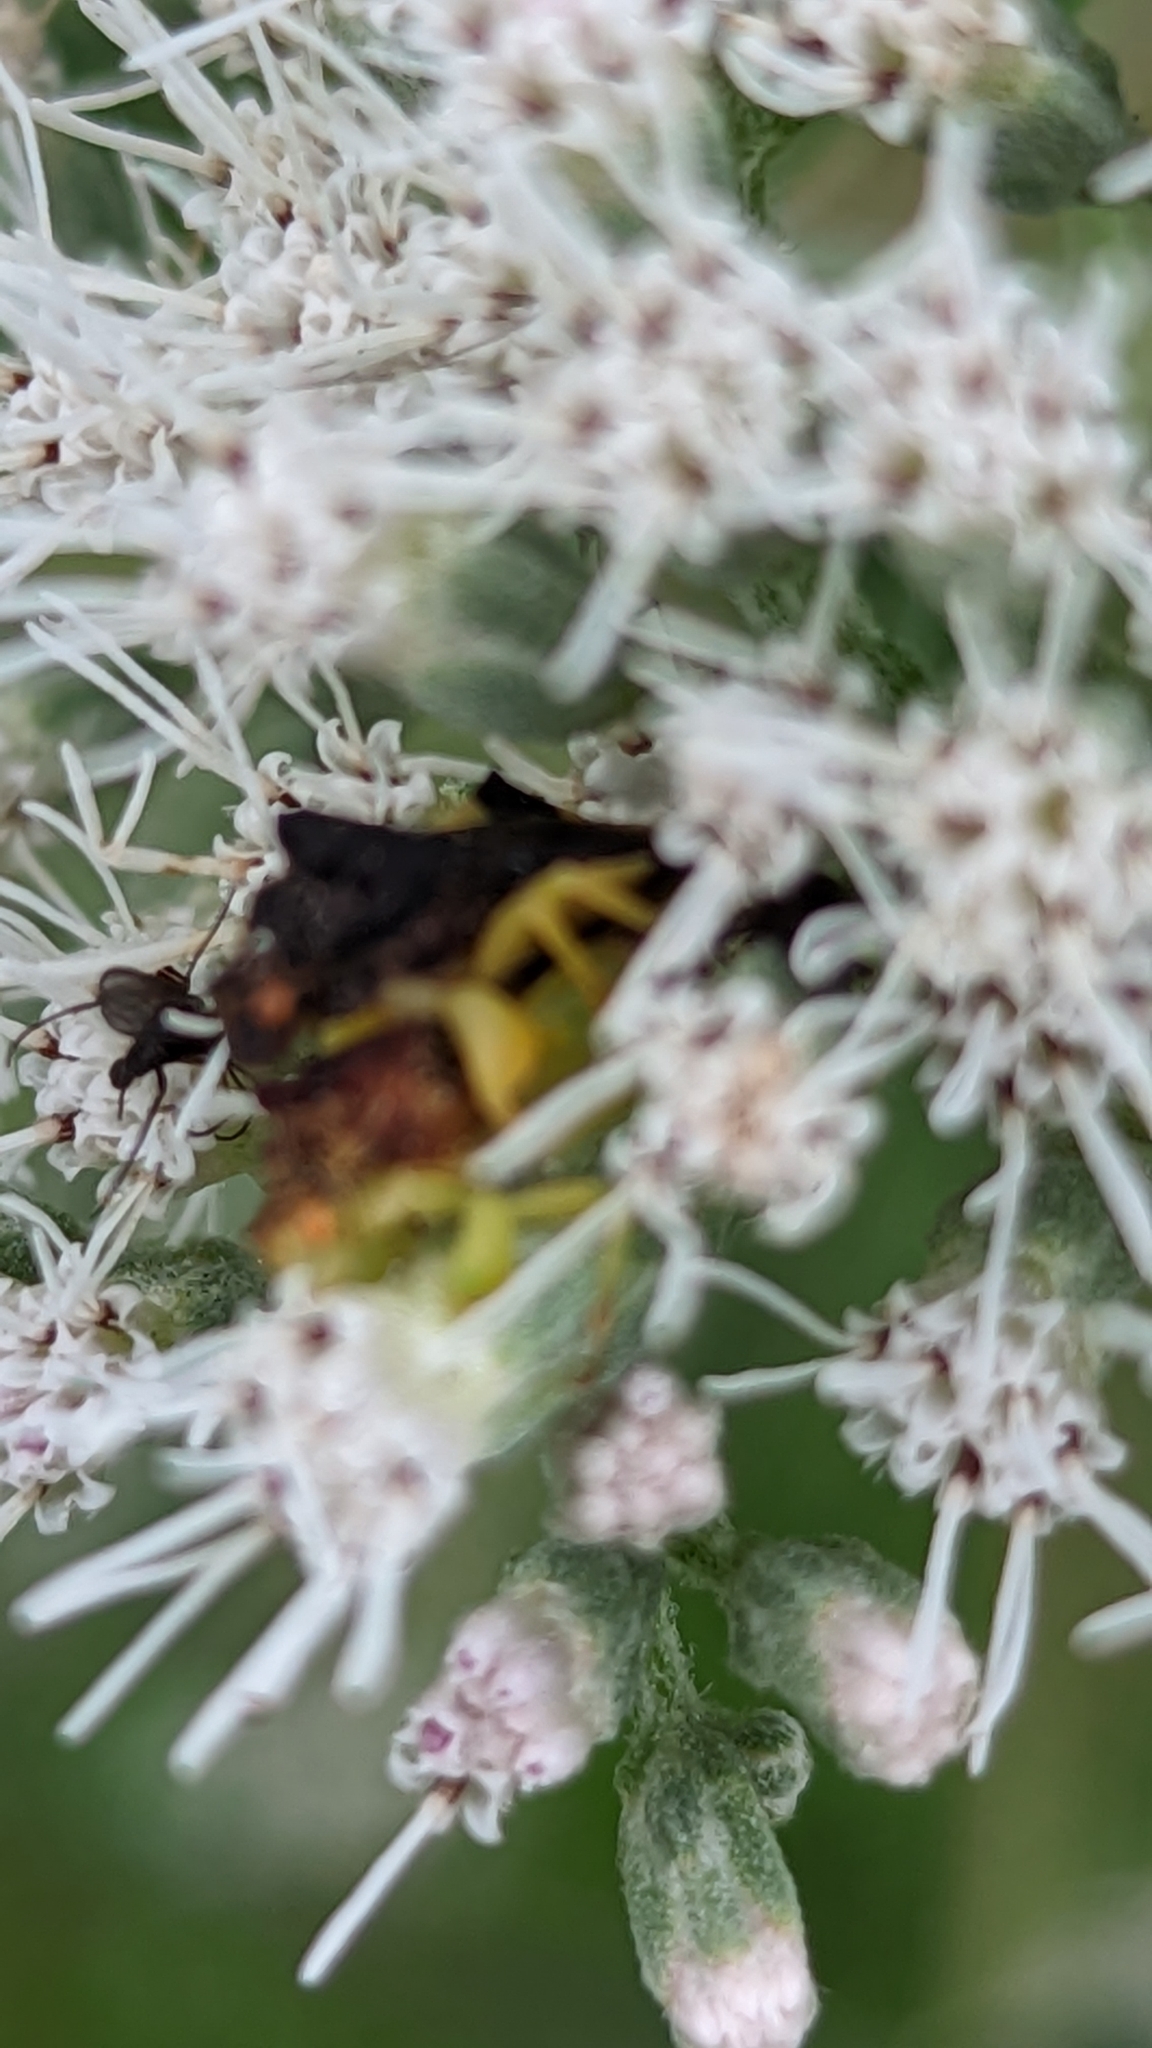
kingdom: Animalia
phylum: Arthropoda
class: Insecta
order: Hemiptera
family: Reduviidae
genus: Phymata
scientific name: Phymata pennsylvanica
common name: Pennsylvania ambush bug
